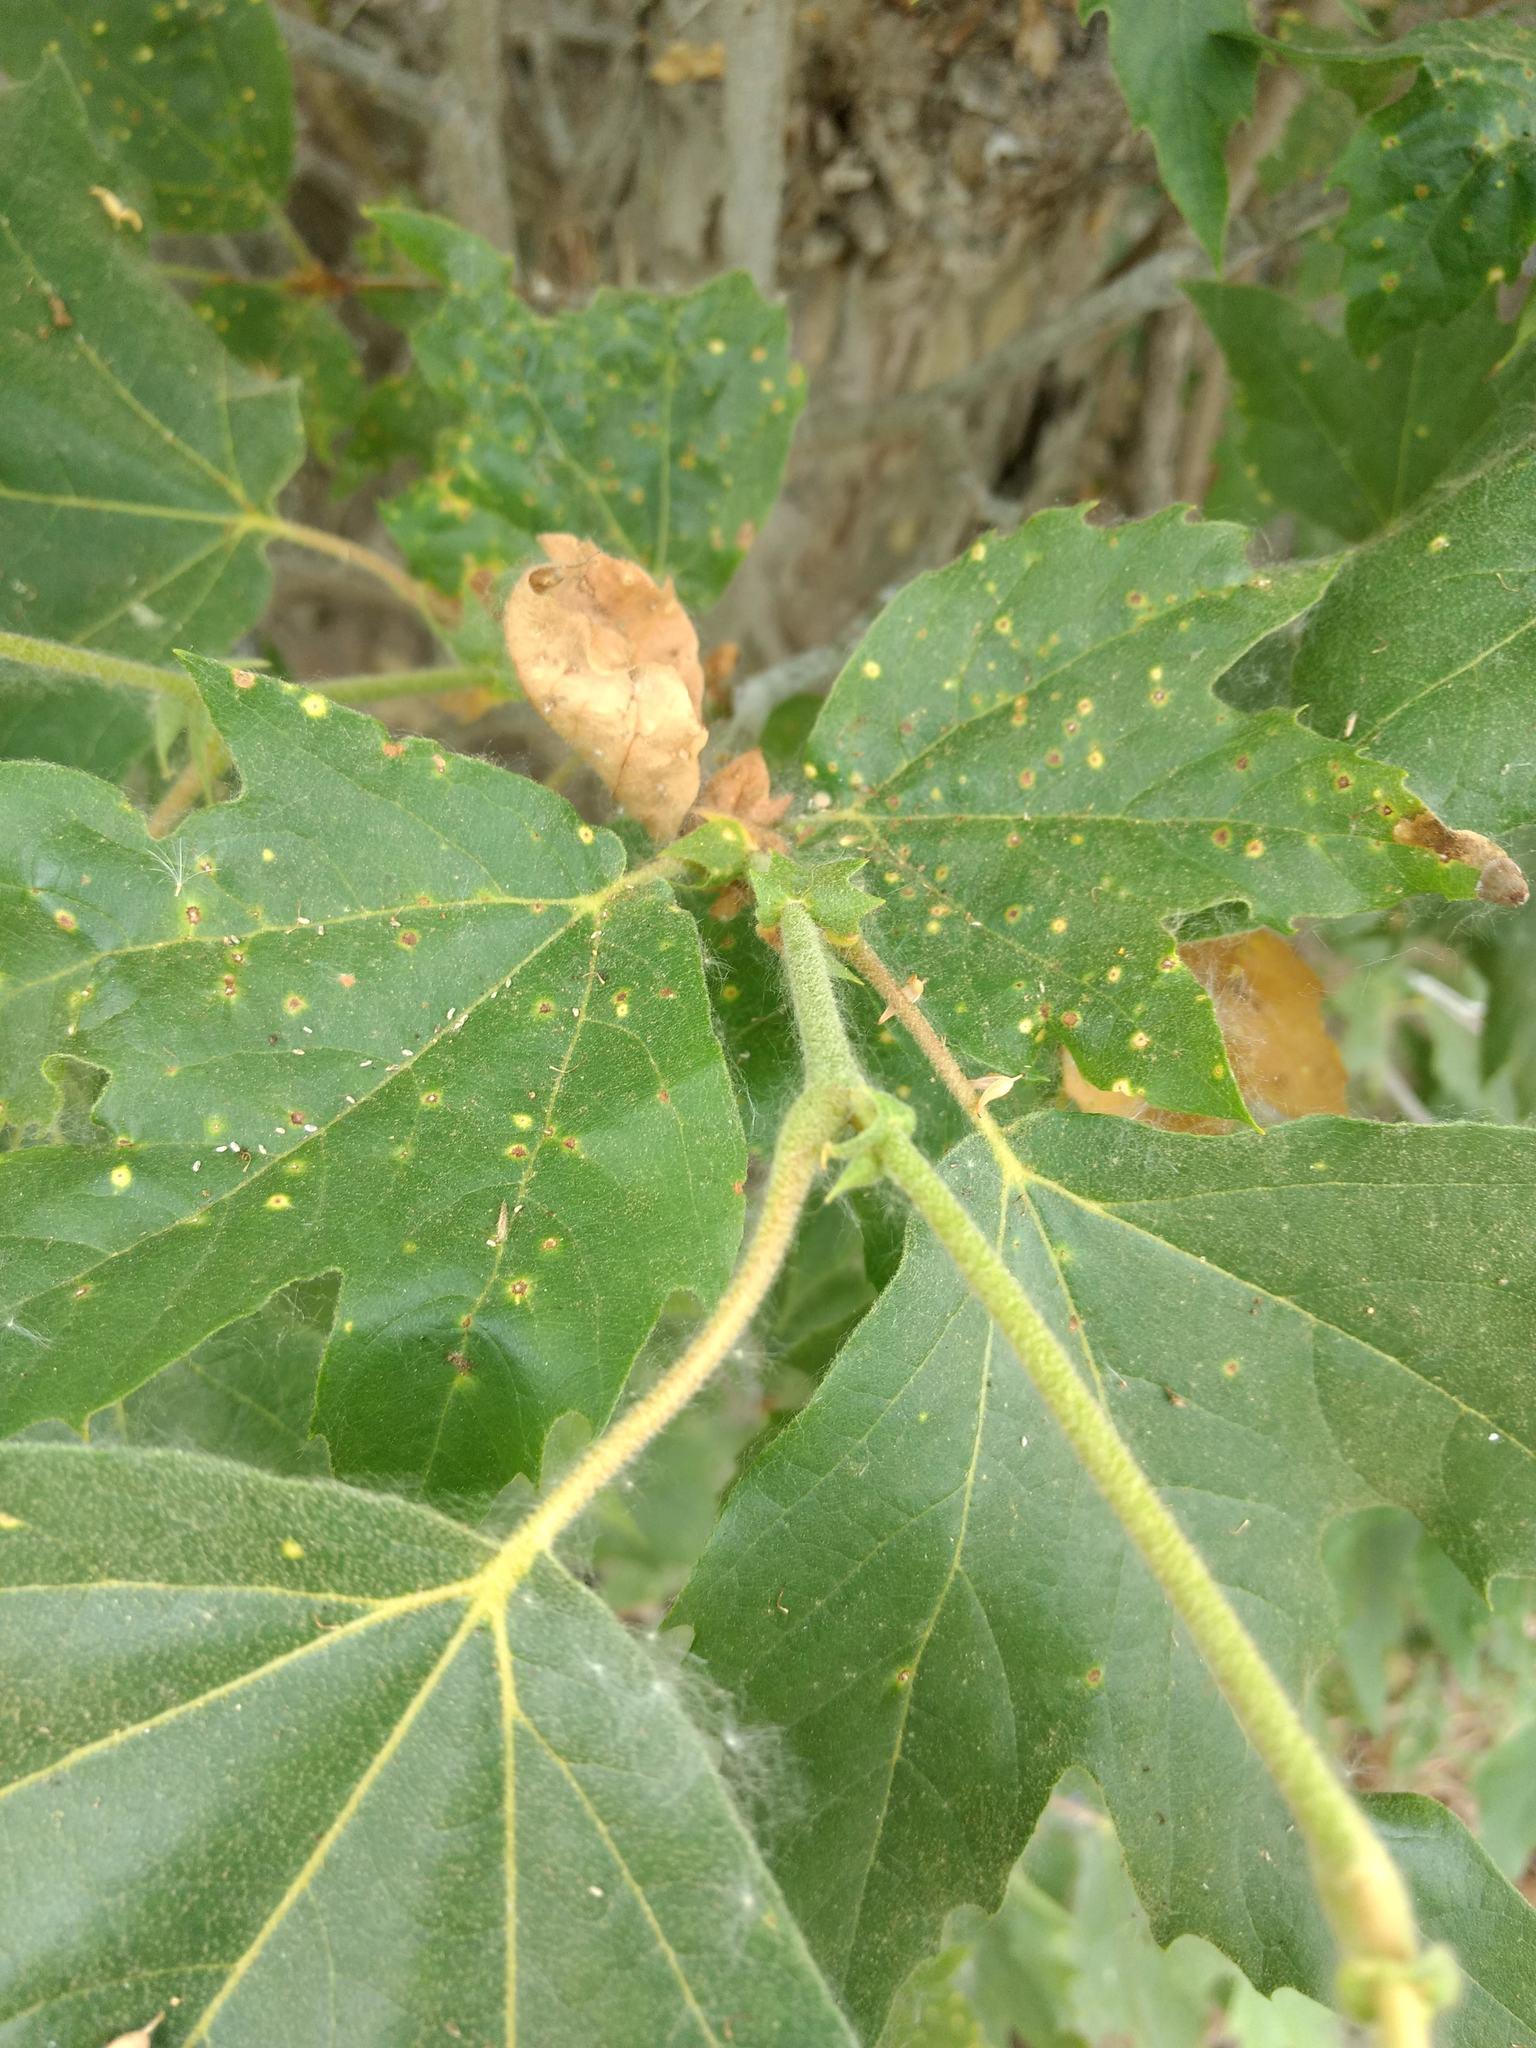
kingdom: Plantae
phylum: Tracheophyta
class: Magnoliopsida
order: Proteales
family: Platanaceae
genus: Platanus
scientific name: Platanus racemosa
